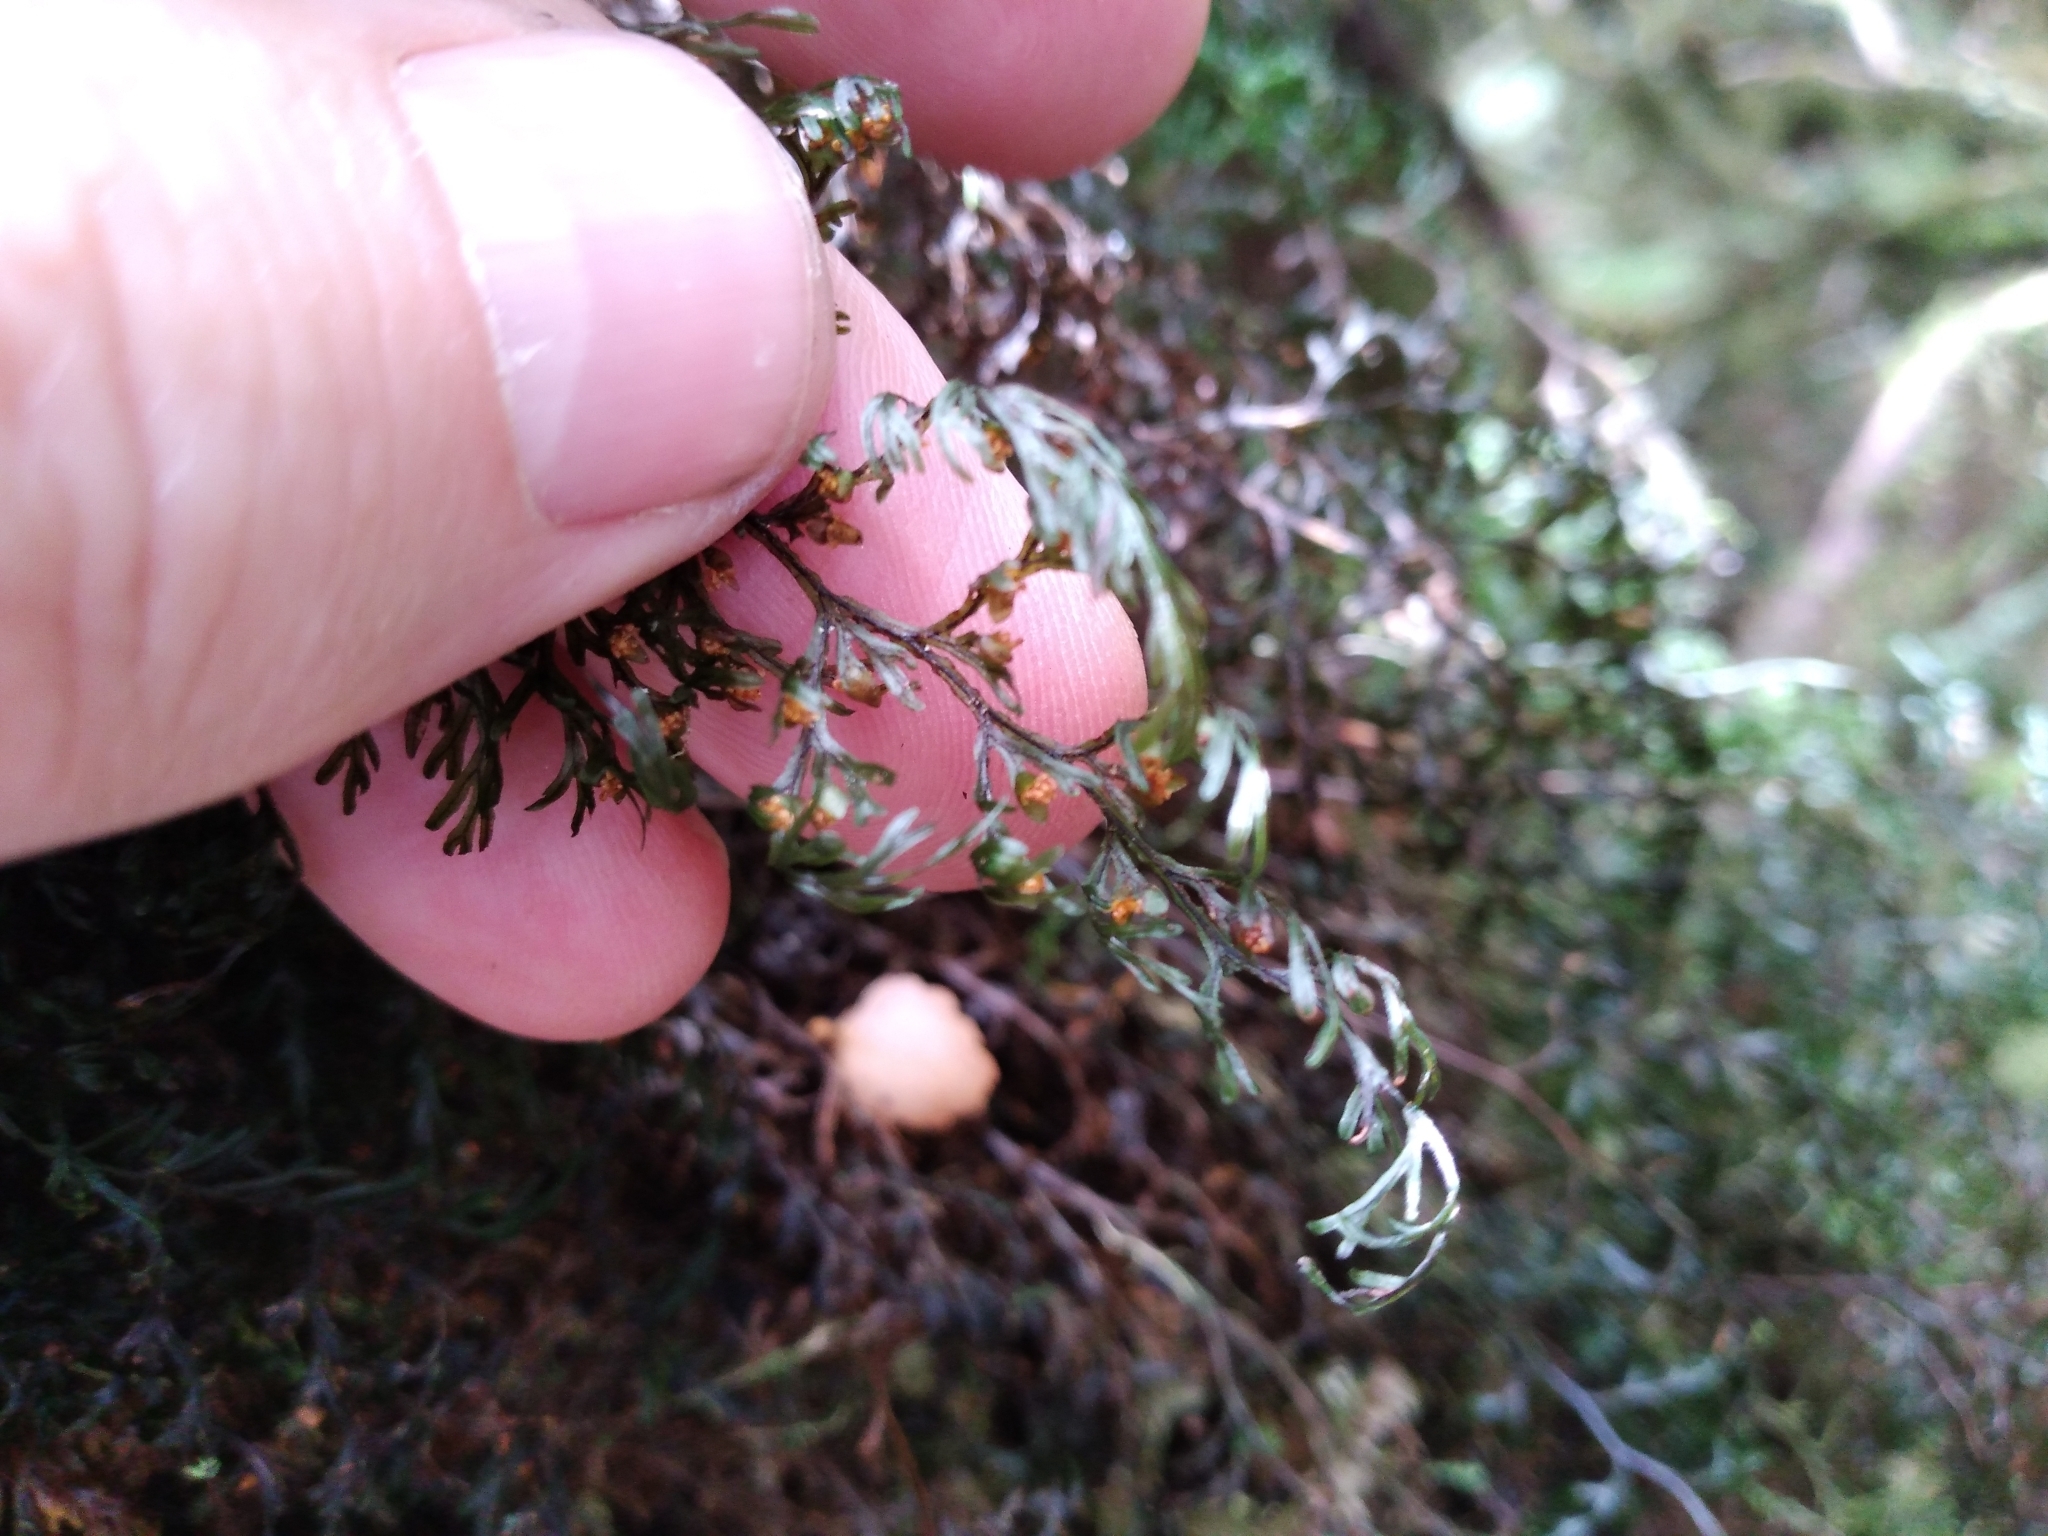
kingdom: Plantae
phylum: Tracheophyta
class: Polypodiopsida
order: Hymenophyllales
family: Hymenophyllaceae
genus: Hymenophyllum
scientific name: Hymenophyllum villosum
